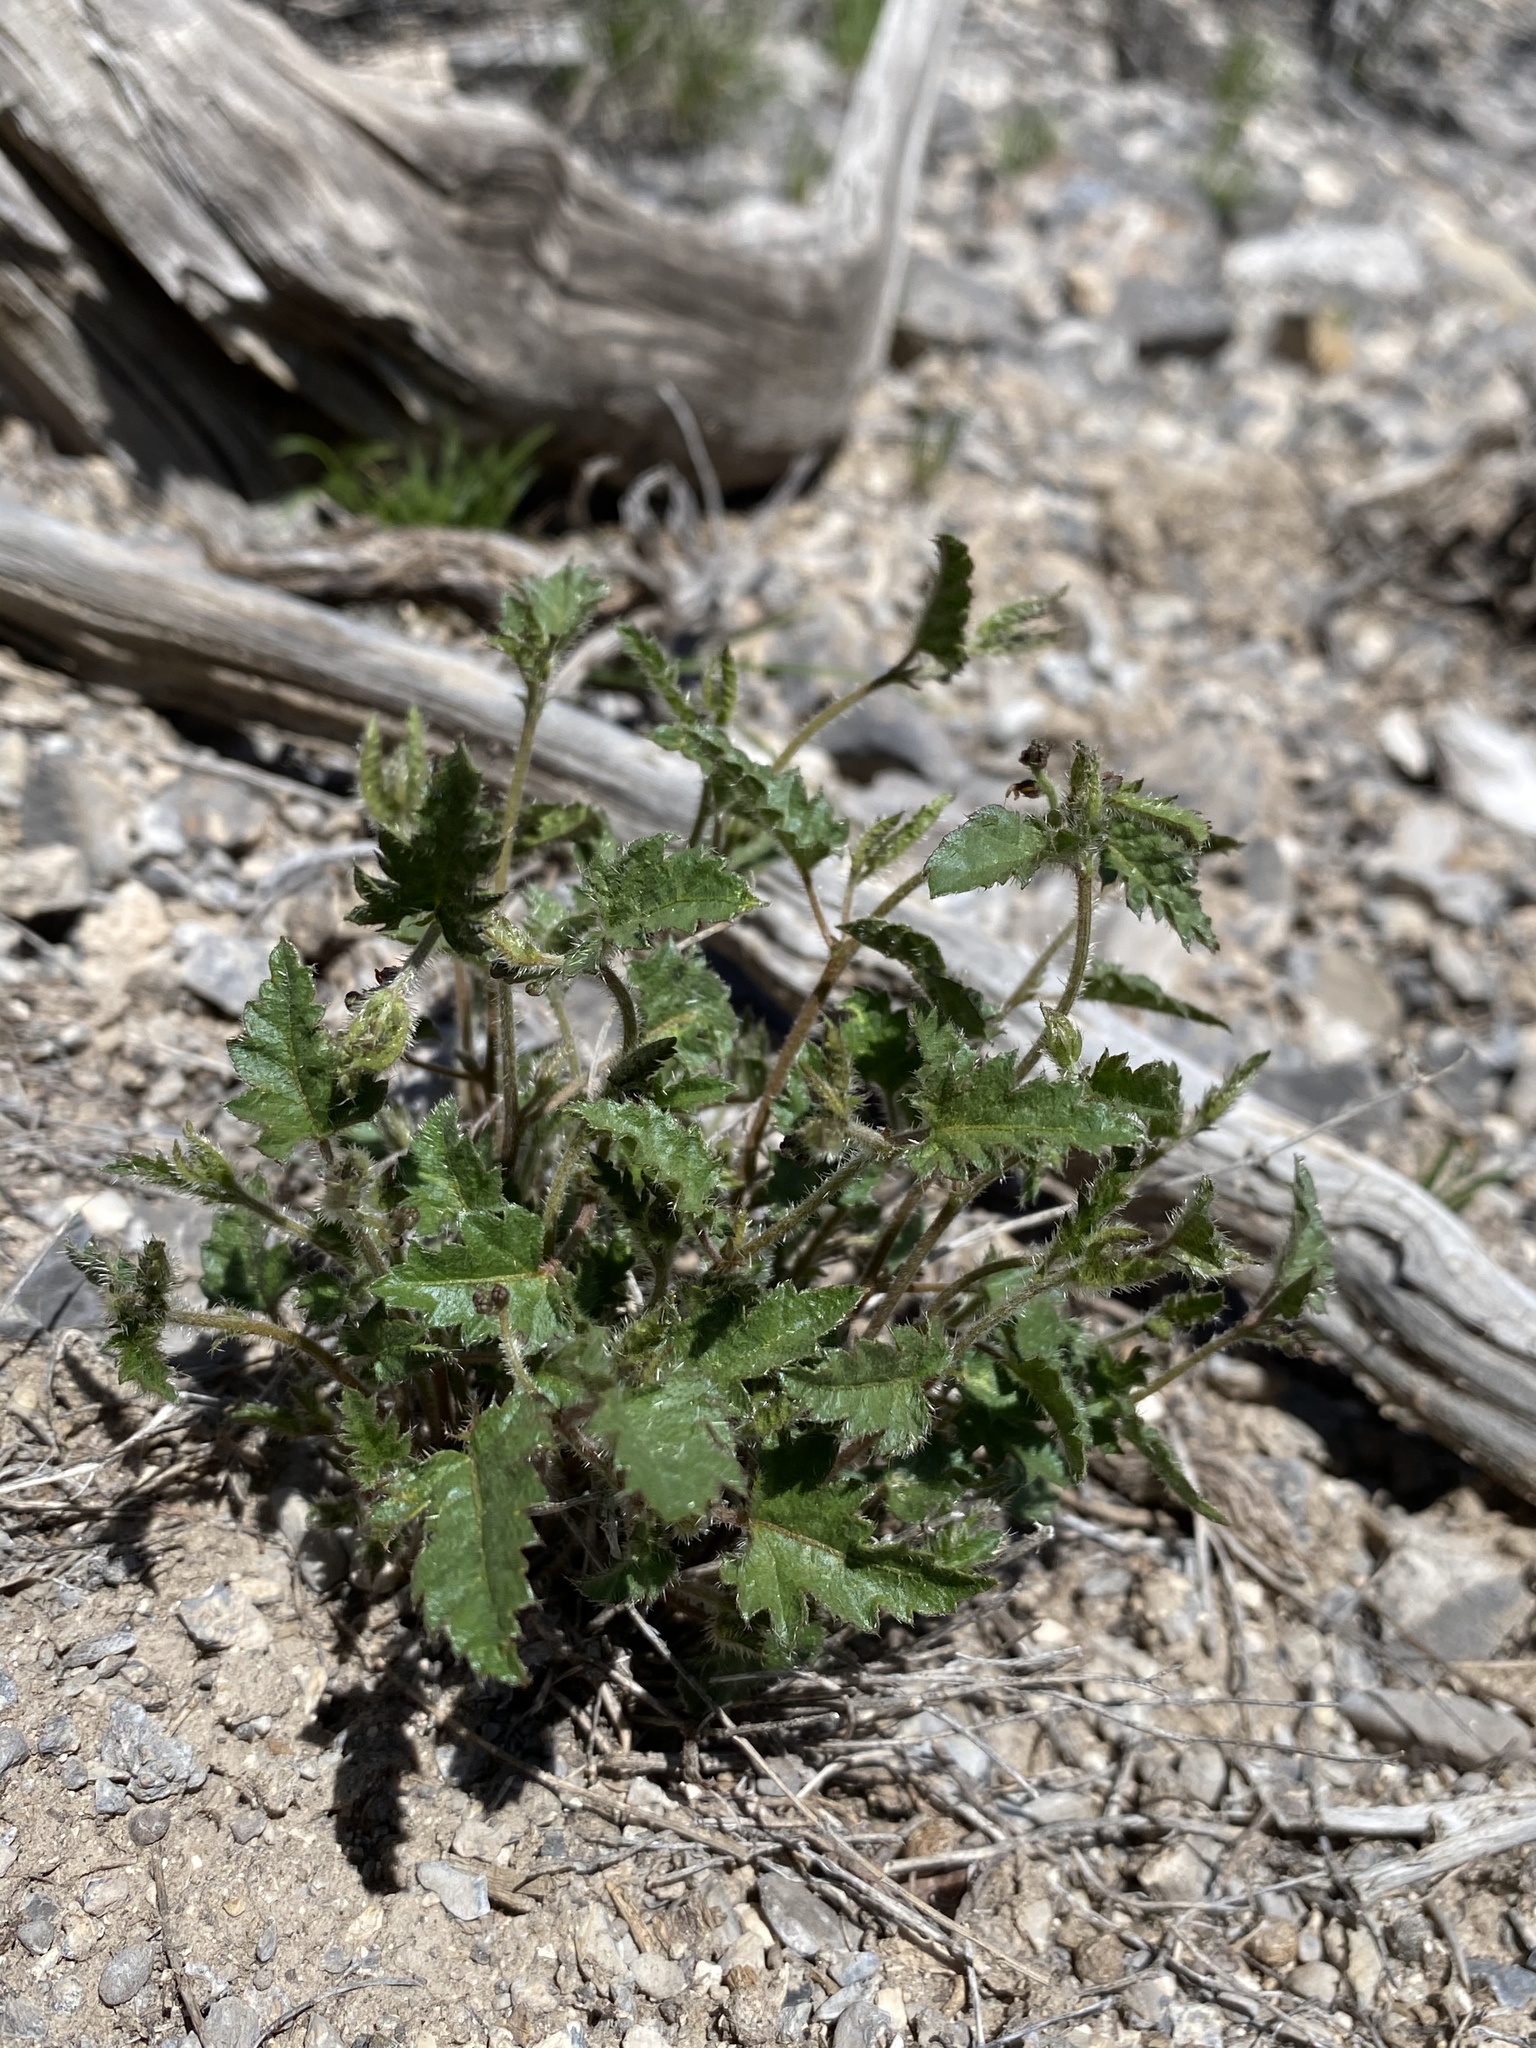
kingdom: Plantae
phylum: Tracheophyta
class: Magnoliopsida
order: Malpighiales
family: Euphorbiaceae
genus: Tragia
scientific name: Tragia ramosa
